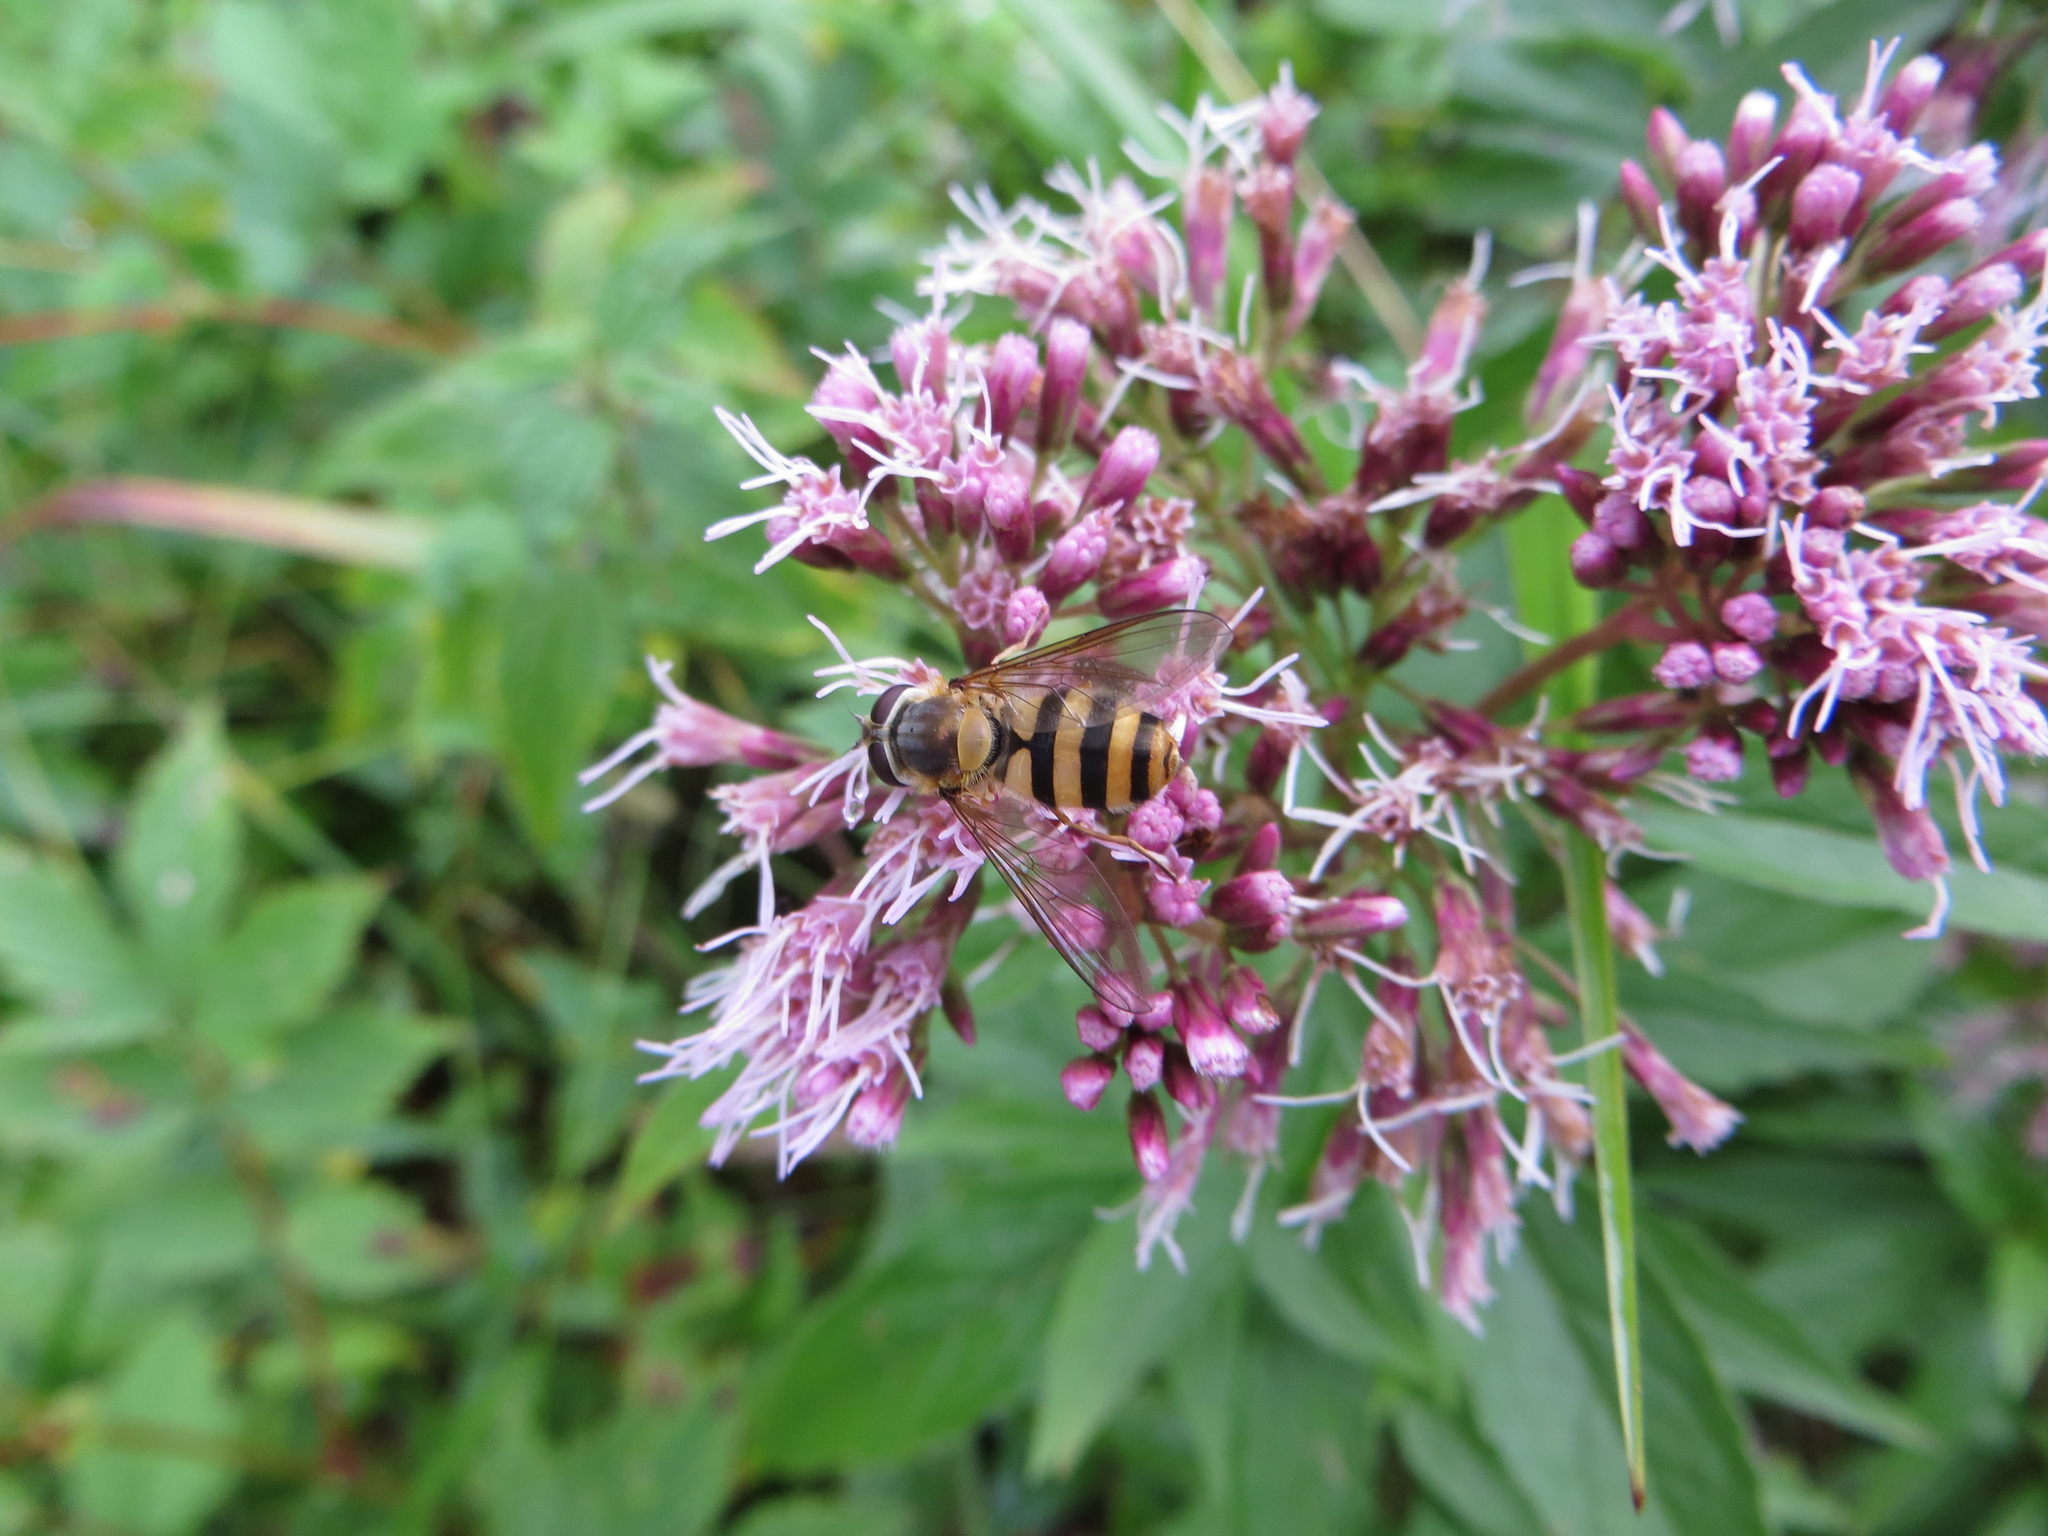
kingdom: Animalia
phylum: Arthropoda
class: Insecta
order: Diptera
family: Syrphidae
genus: Epistrophe
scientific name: Epistrophe grossulariae
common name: Black-horned smoothtail
